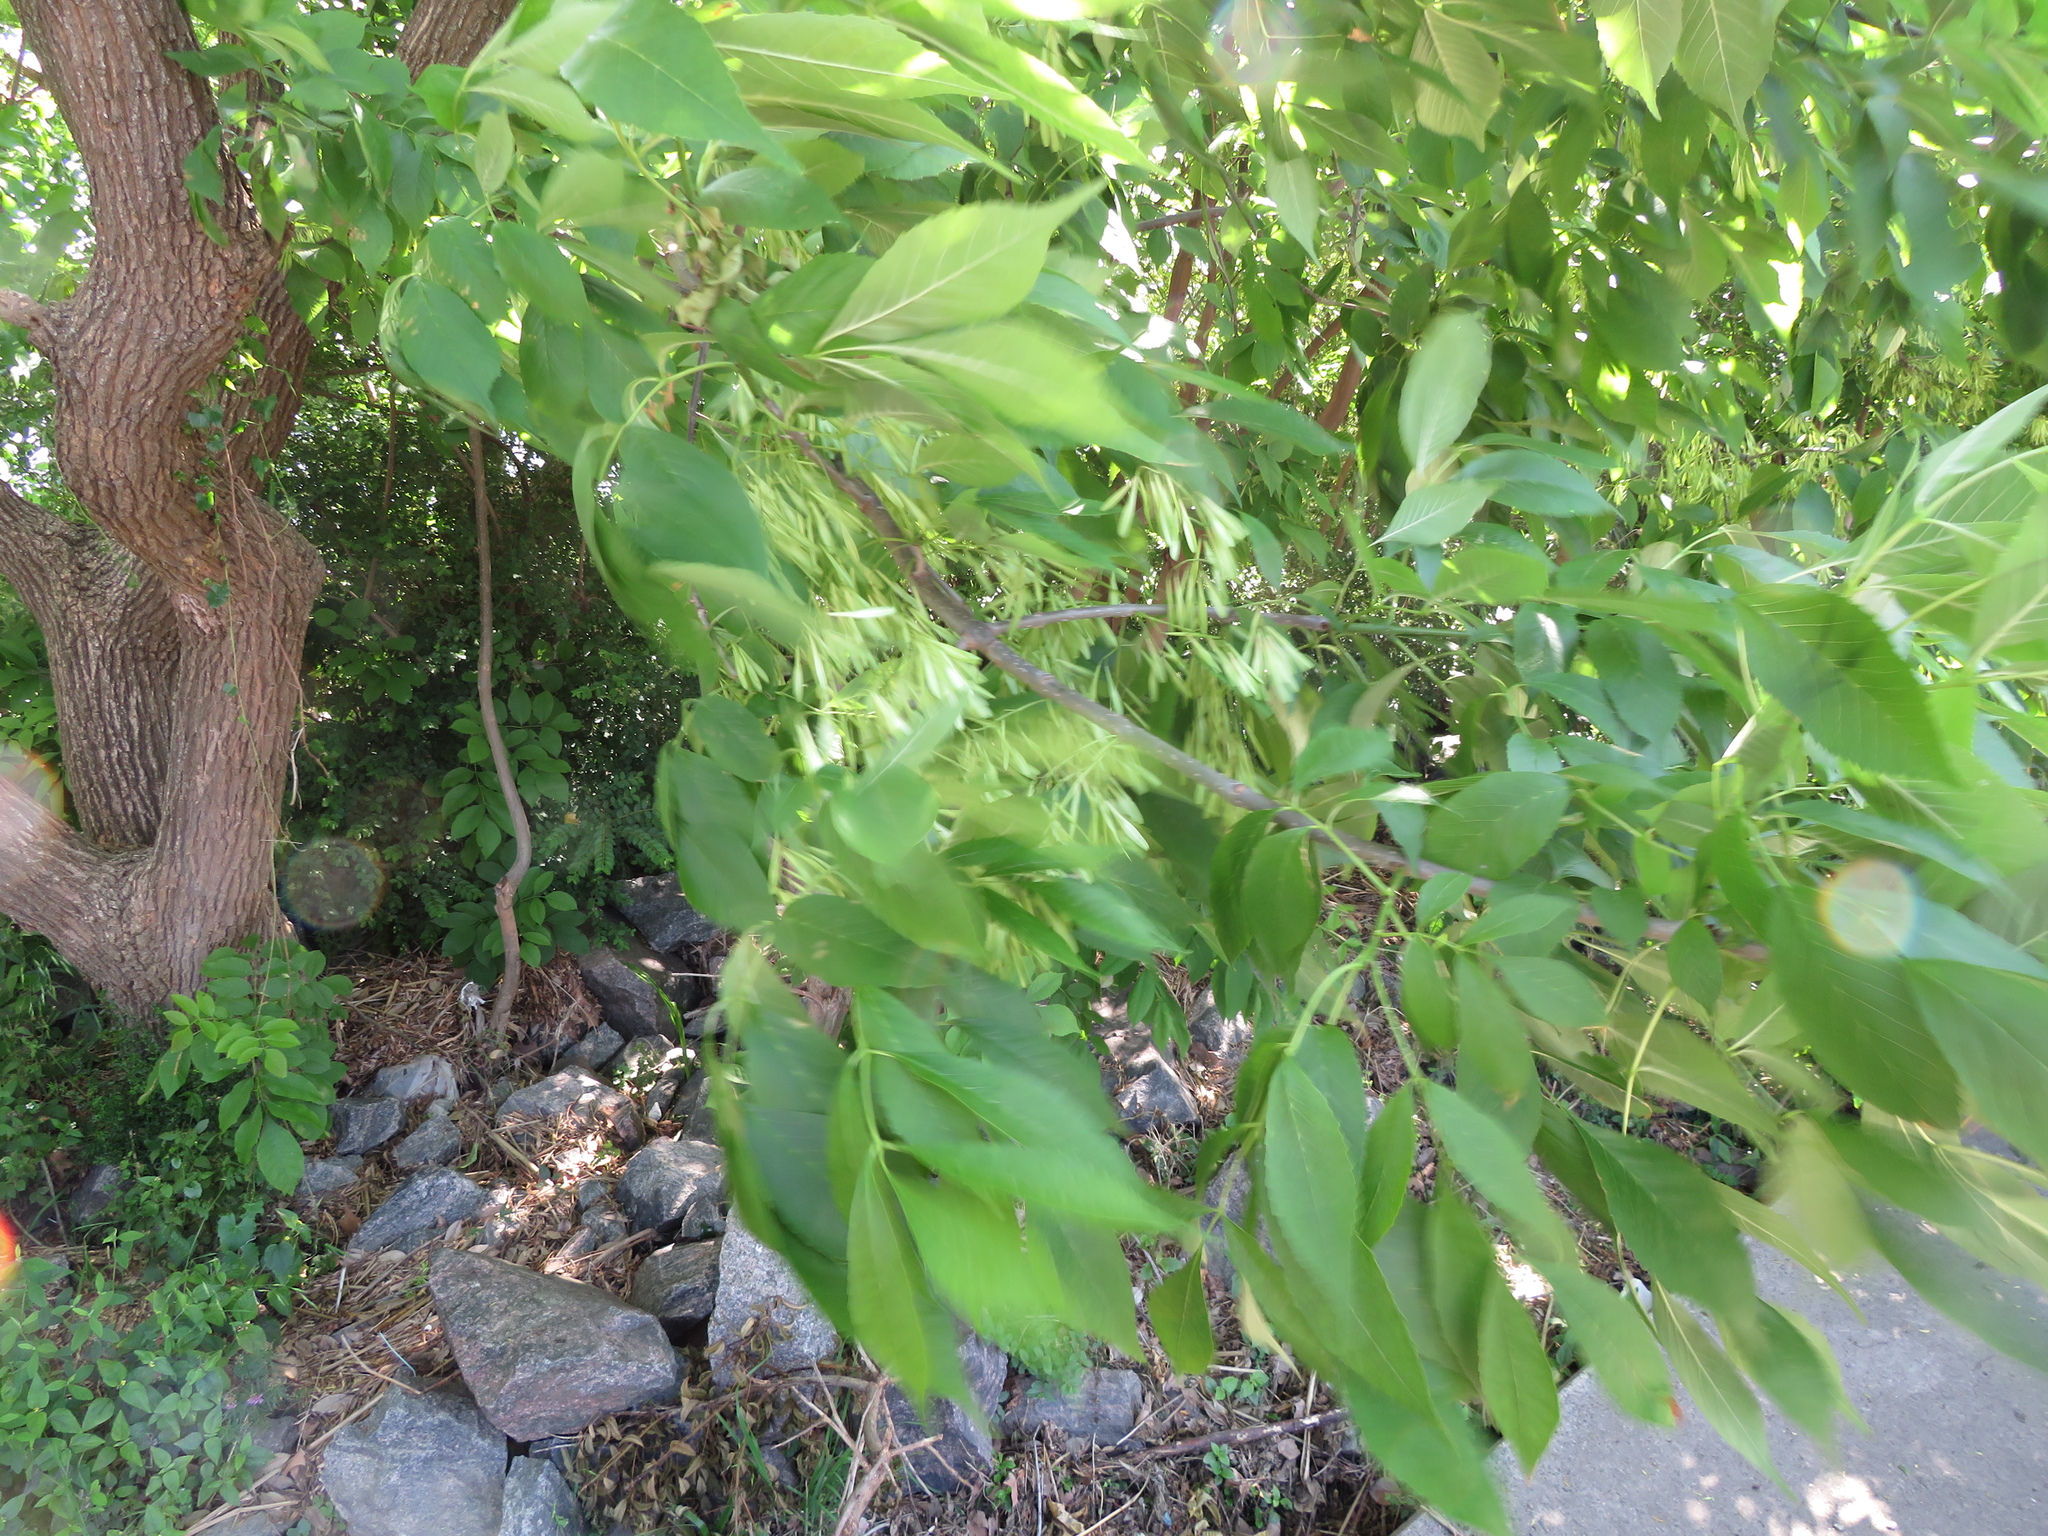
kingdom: Plantae
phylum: Tracheophyta
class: Magnoliopsida
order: Lamiales
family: Oleaceae
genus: Fraxinus
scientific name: Fraxinus pennsylvanica
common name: Green ash
